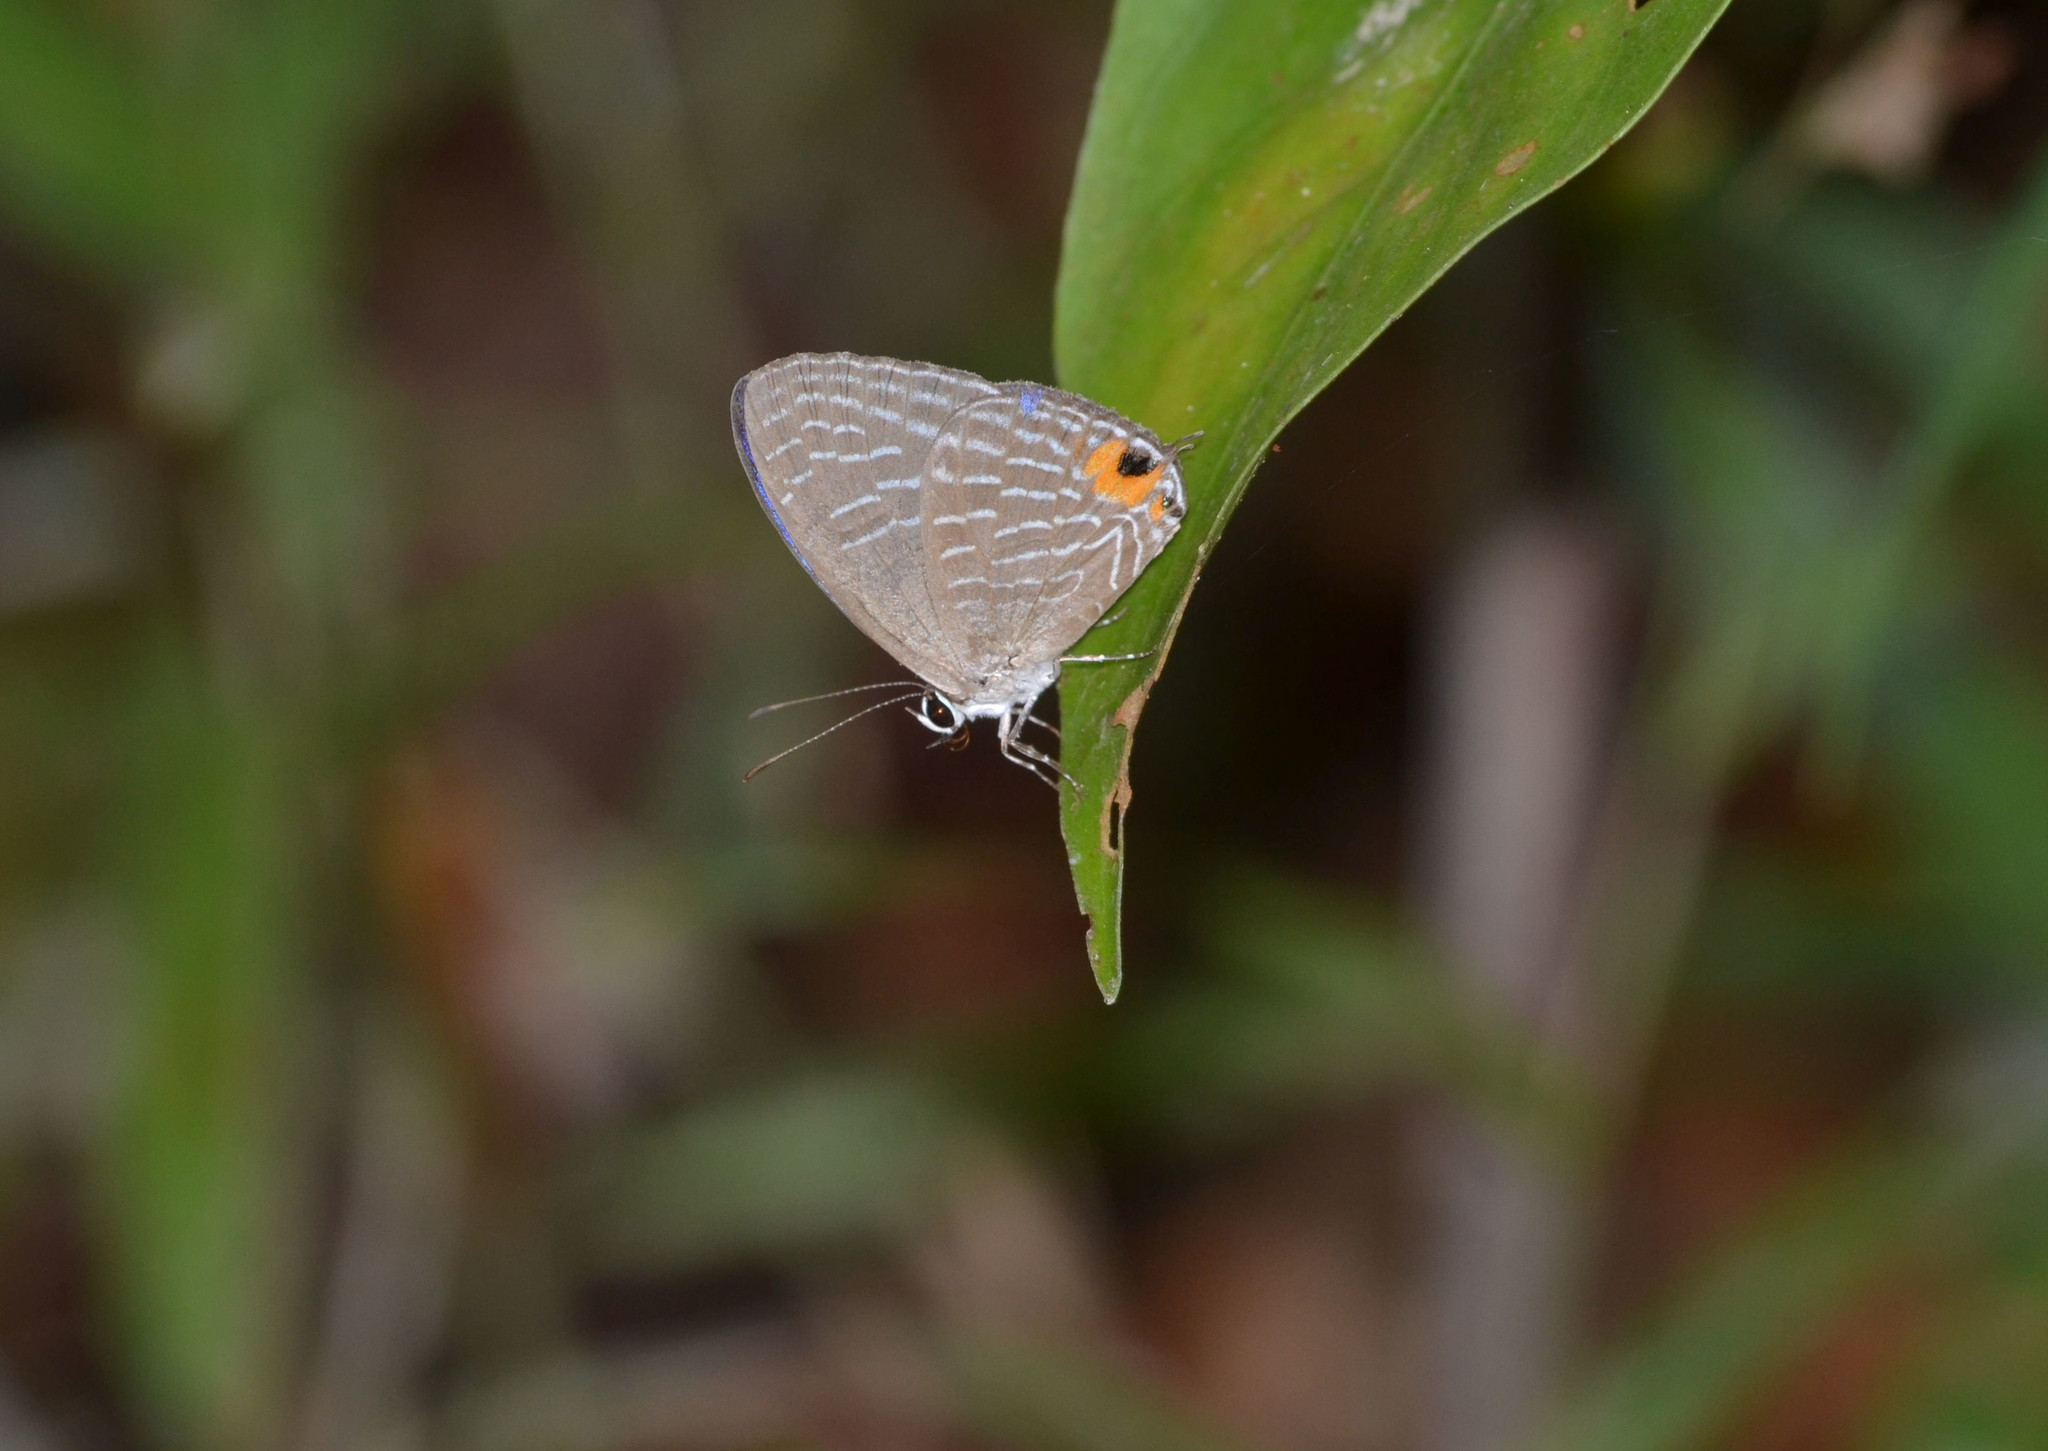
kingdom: Animalia
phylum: Arthropoda
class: Insecta
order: Lepidoptera
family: Lycaenidae
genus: Jamides
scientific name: Jamides
